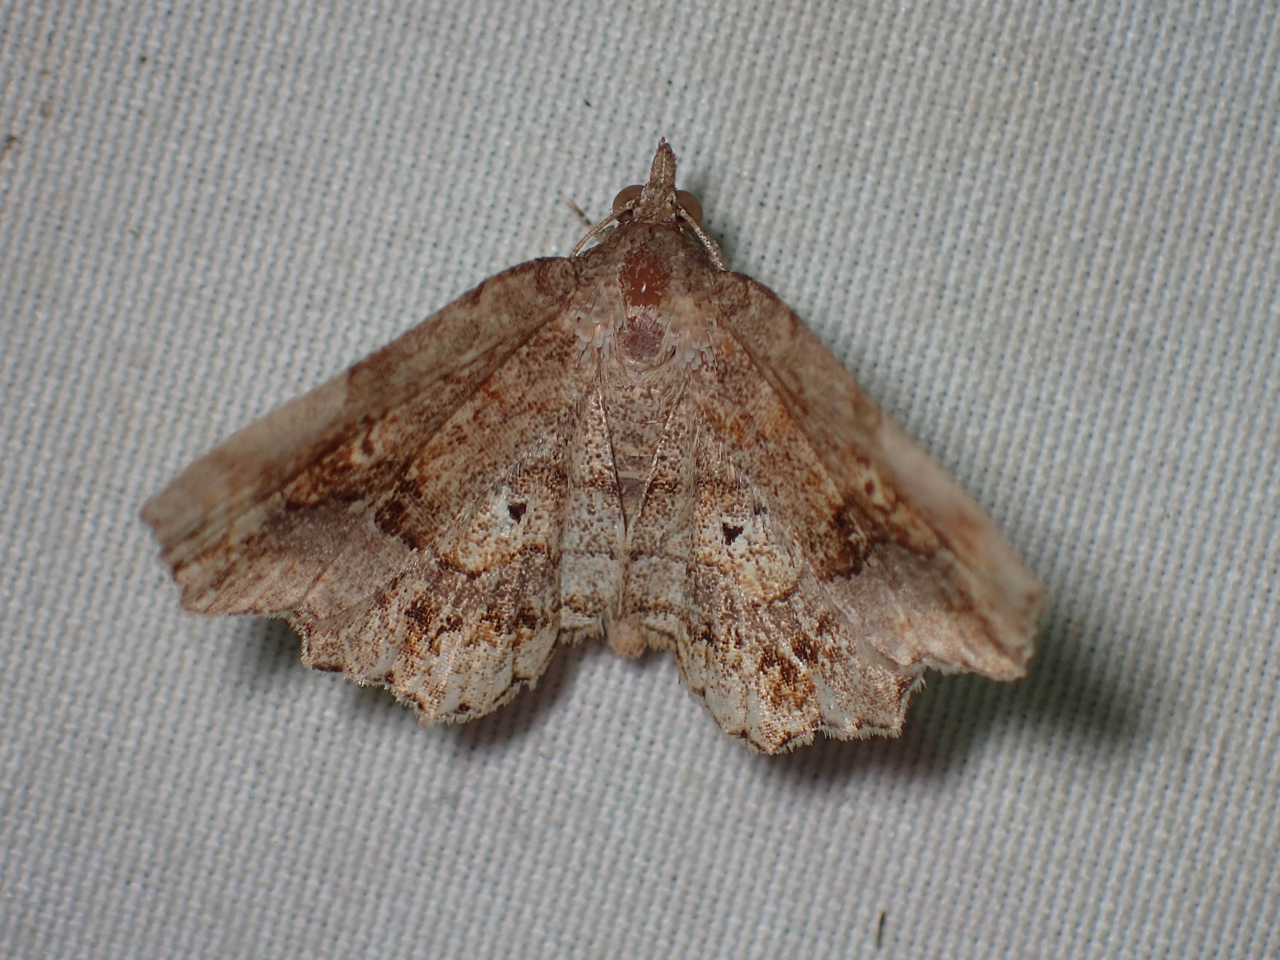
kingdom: Animalia
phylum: Arthropoda
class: Insecta
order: Lepidoptera
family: Erebidae
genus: Pangrapta
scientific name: Pangrapta decoralis
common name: Decorated owlet
